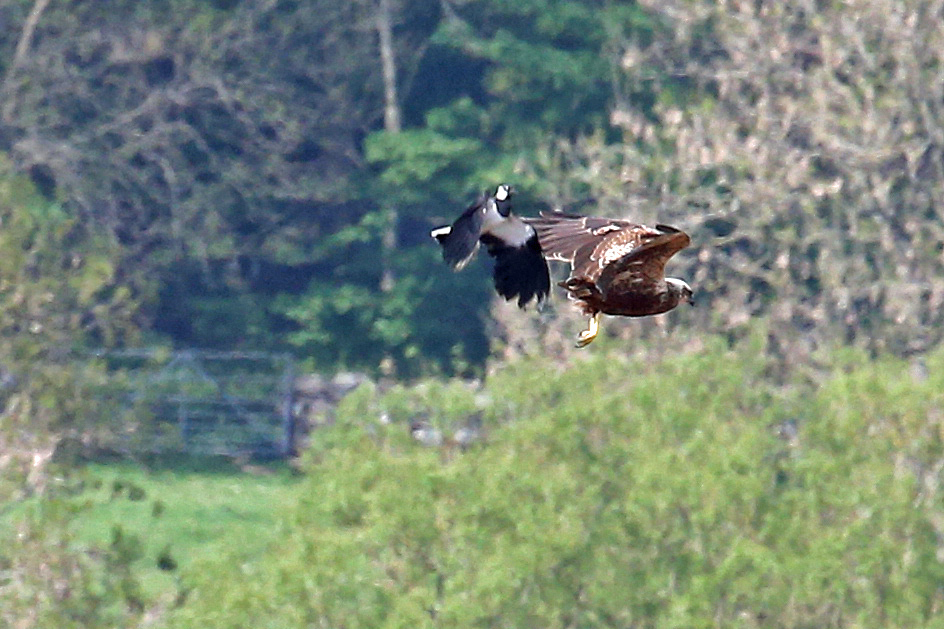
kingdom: Animalia
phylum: Chordata
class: Aves
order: Charadriiformes
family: Charadriidae
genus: Vanellus
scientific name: Vanellus vanellus
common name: Northern lapwing
